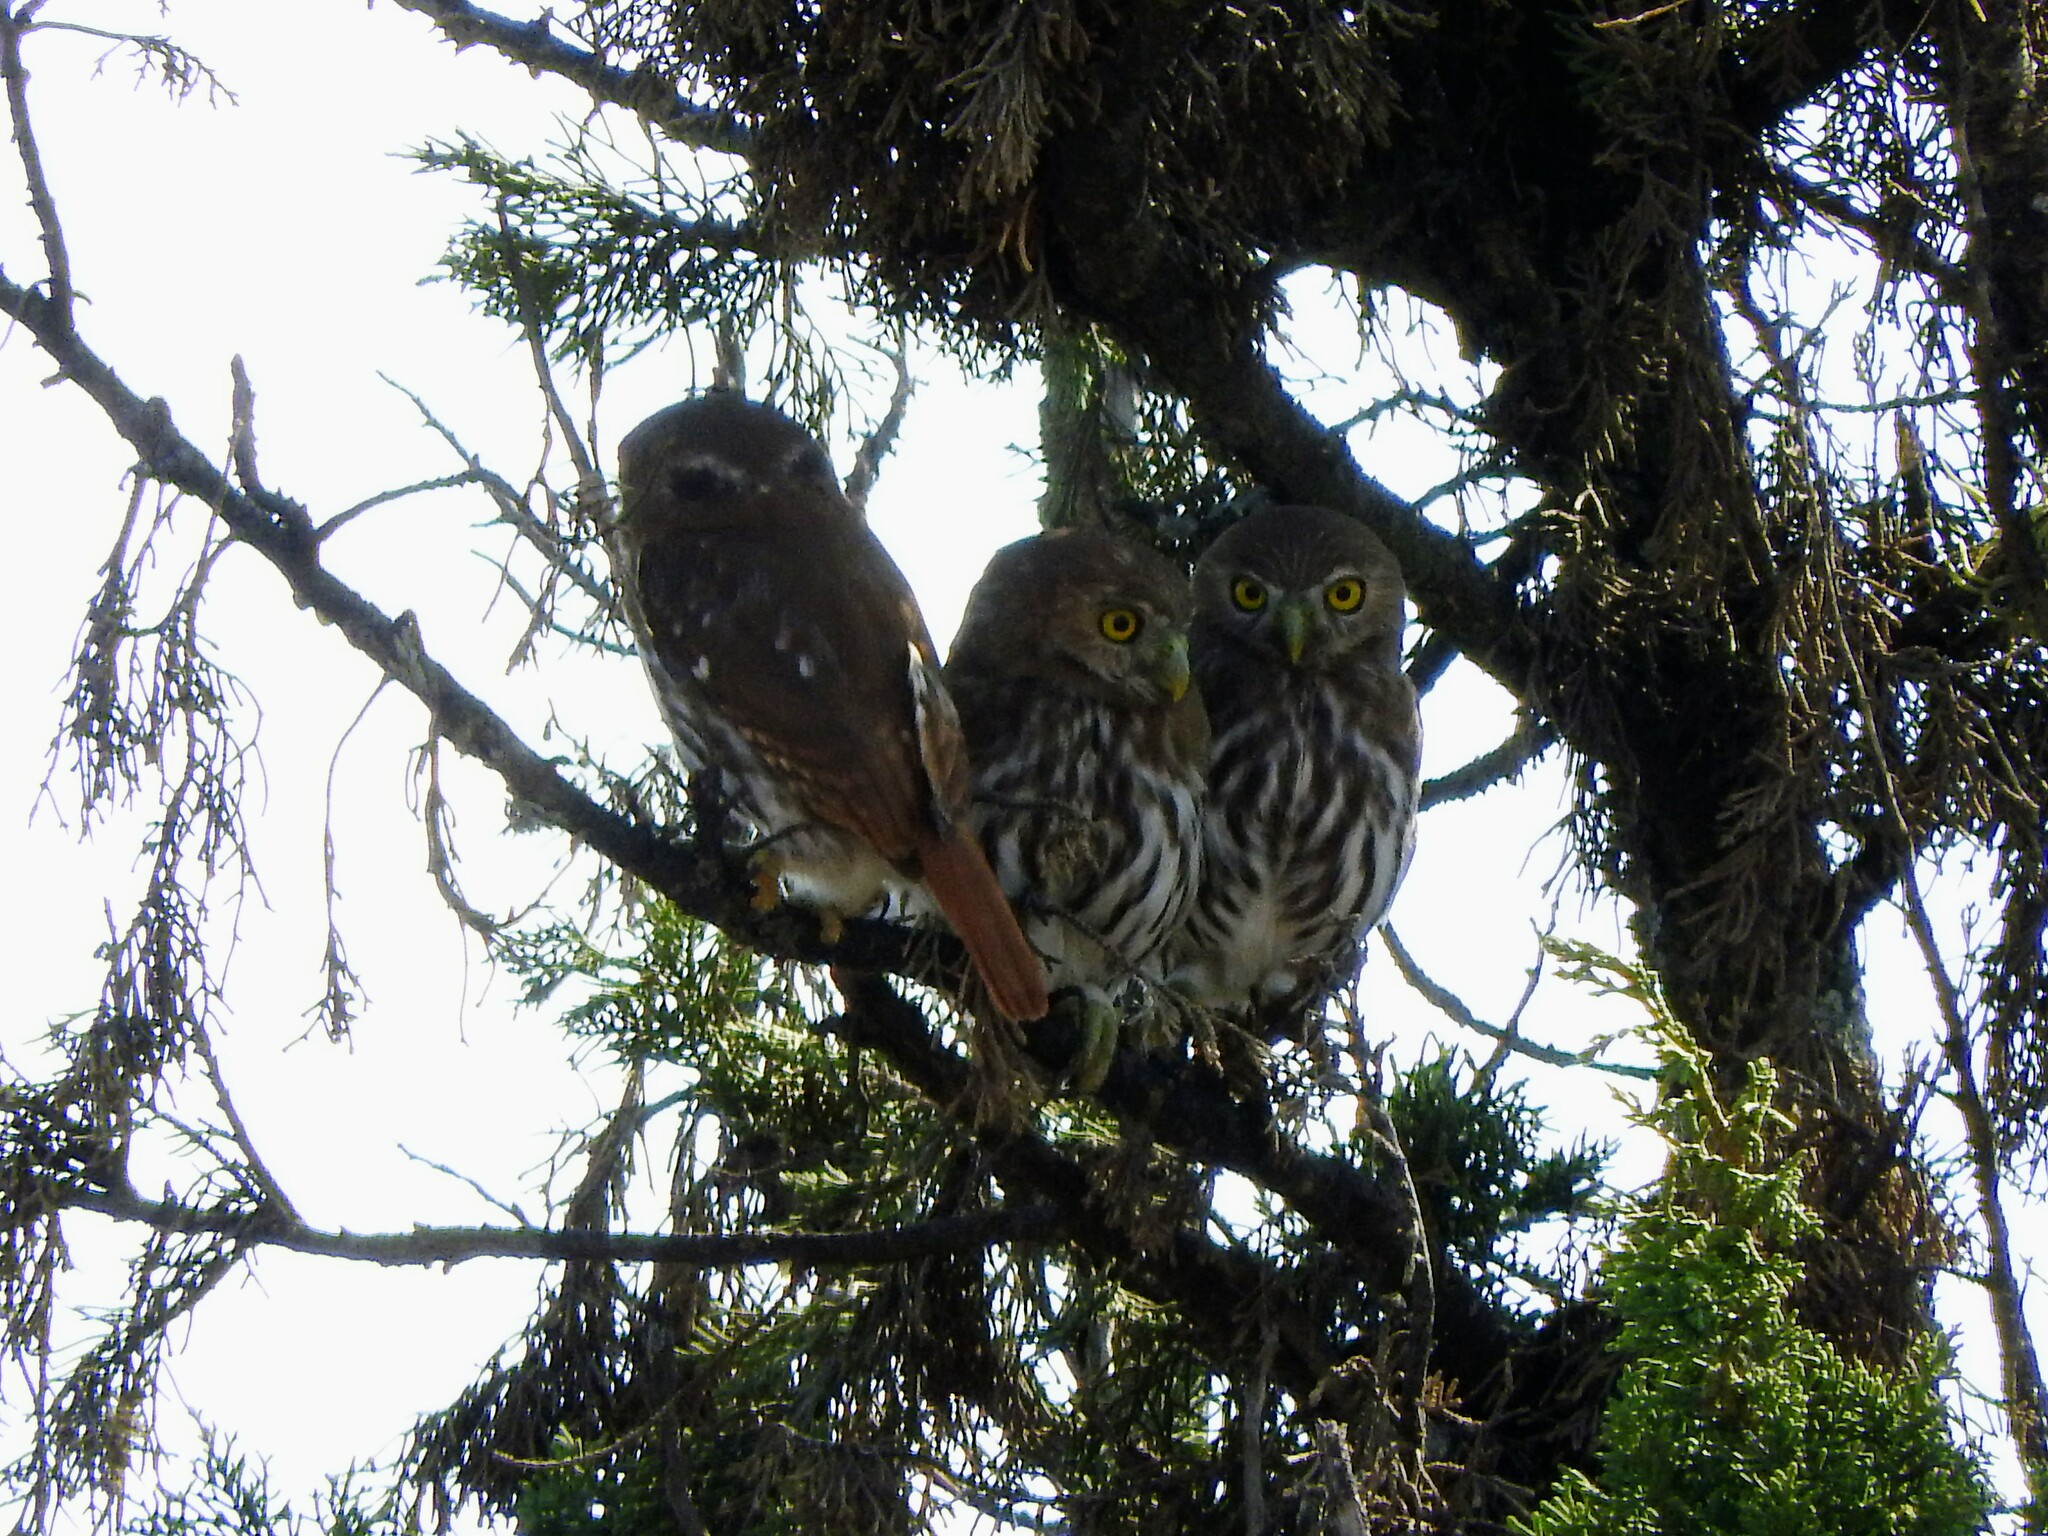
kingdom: Animalia
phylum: Chordata
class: Aves
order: Strigiformes
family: Strigidae
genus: Glaucidium
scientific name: Glaucidium brasilianum
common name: Ferruginous pygmy-owl
